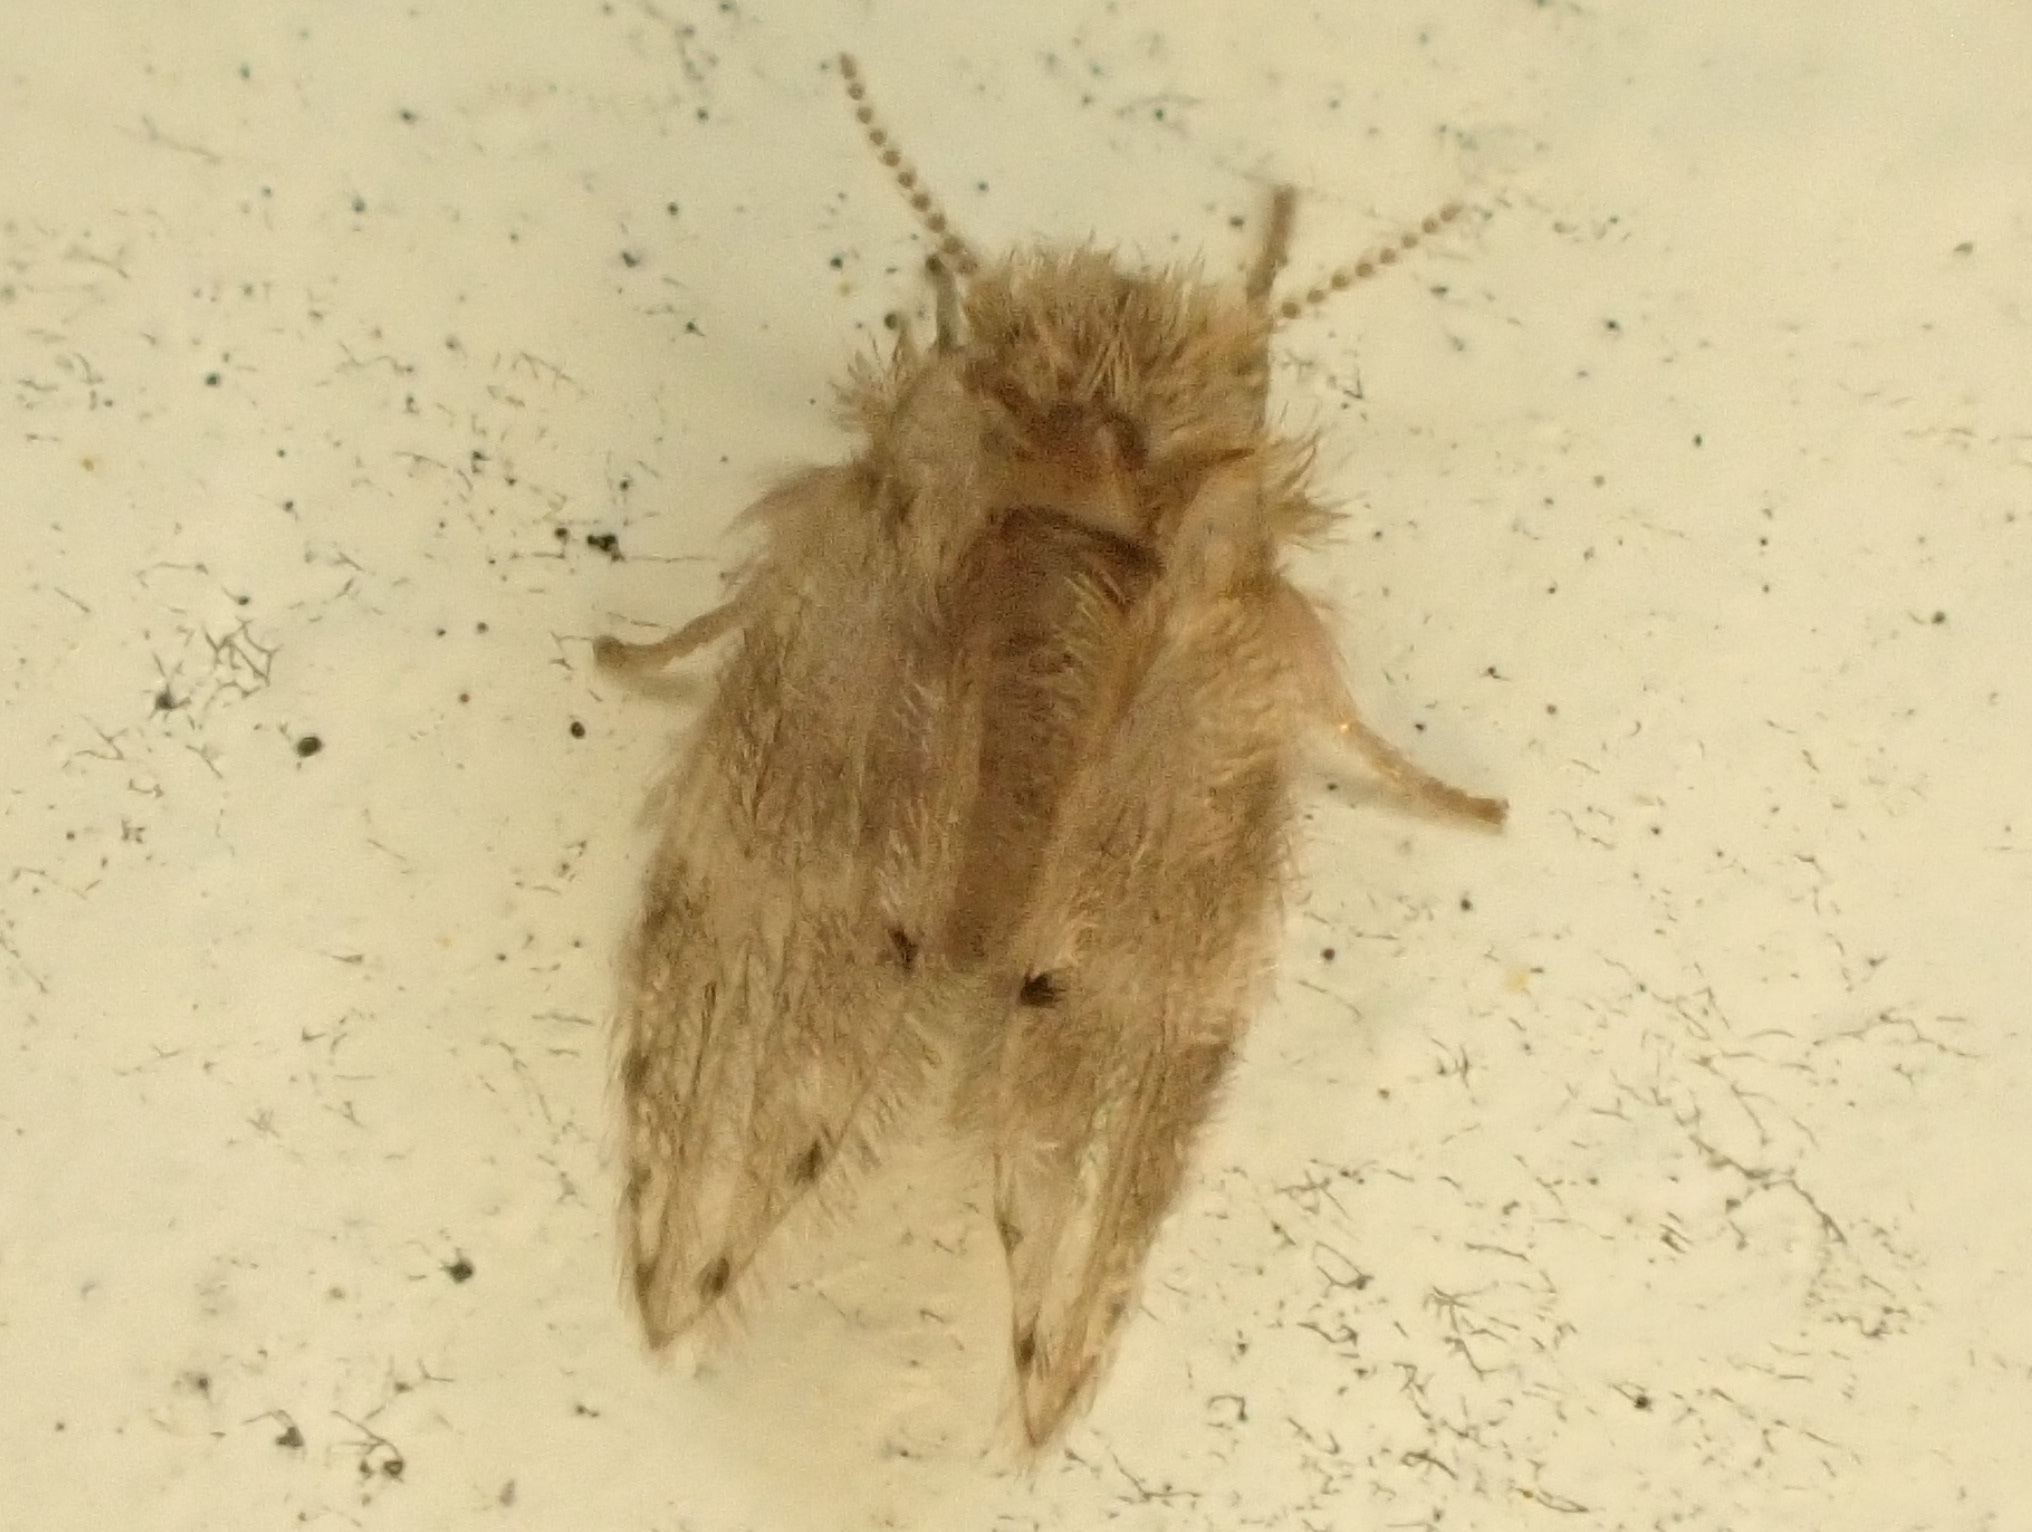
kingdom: Animalia
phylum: Arthropoda
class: Insecta
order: Diptera
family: Psychodidae
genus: Psychoda
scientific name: Psychoda alternata
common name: Moth fly
